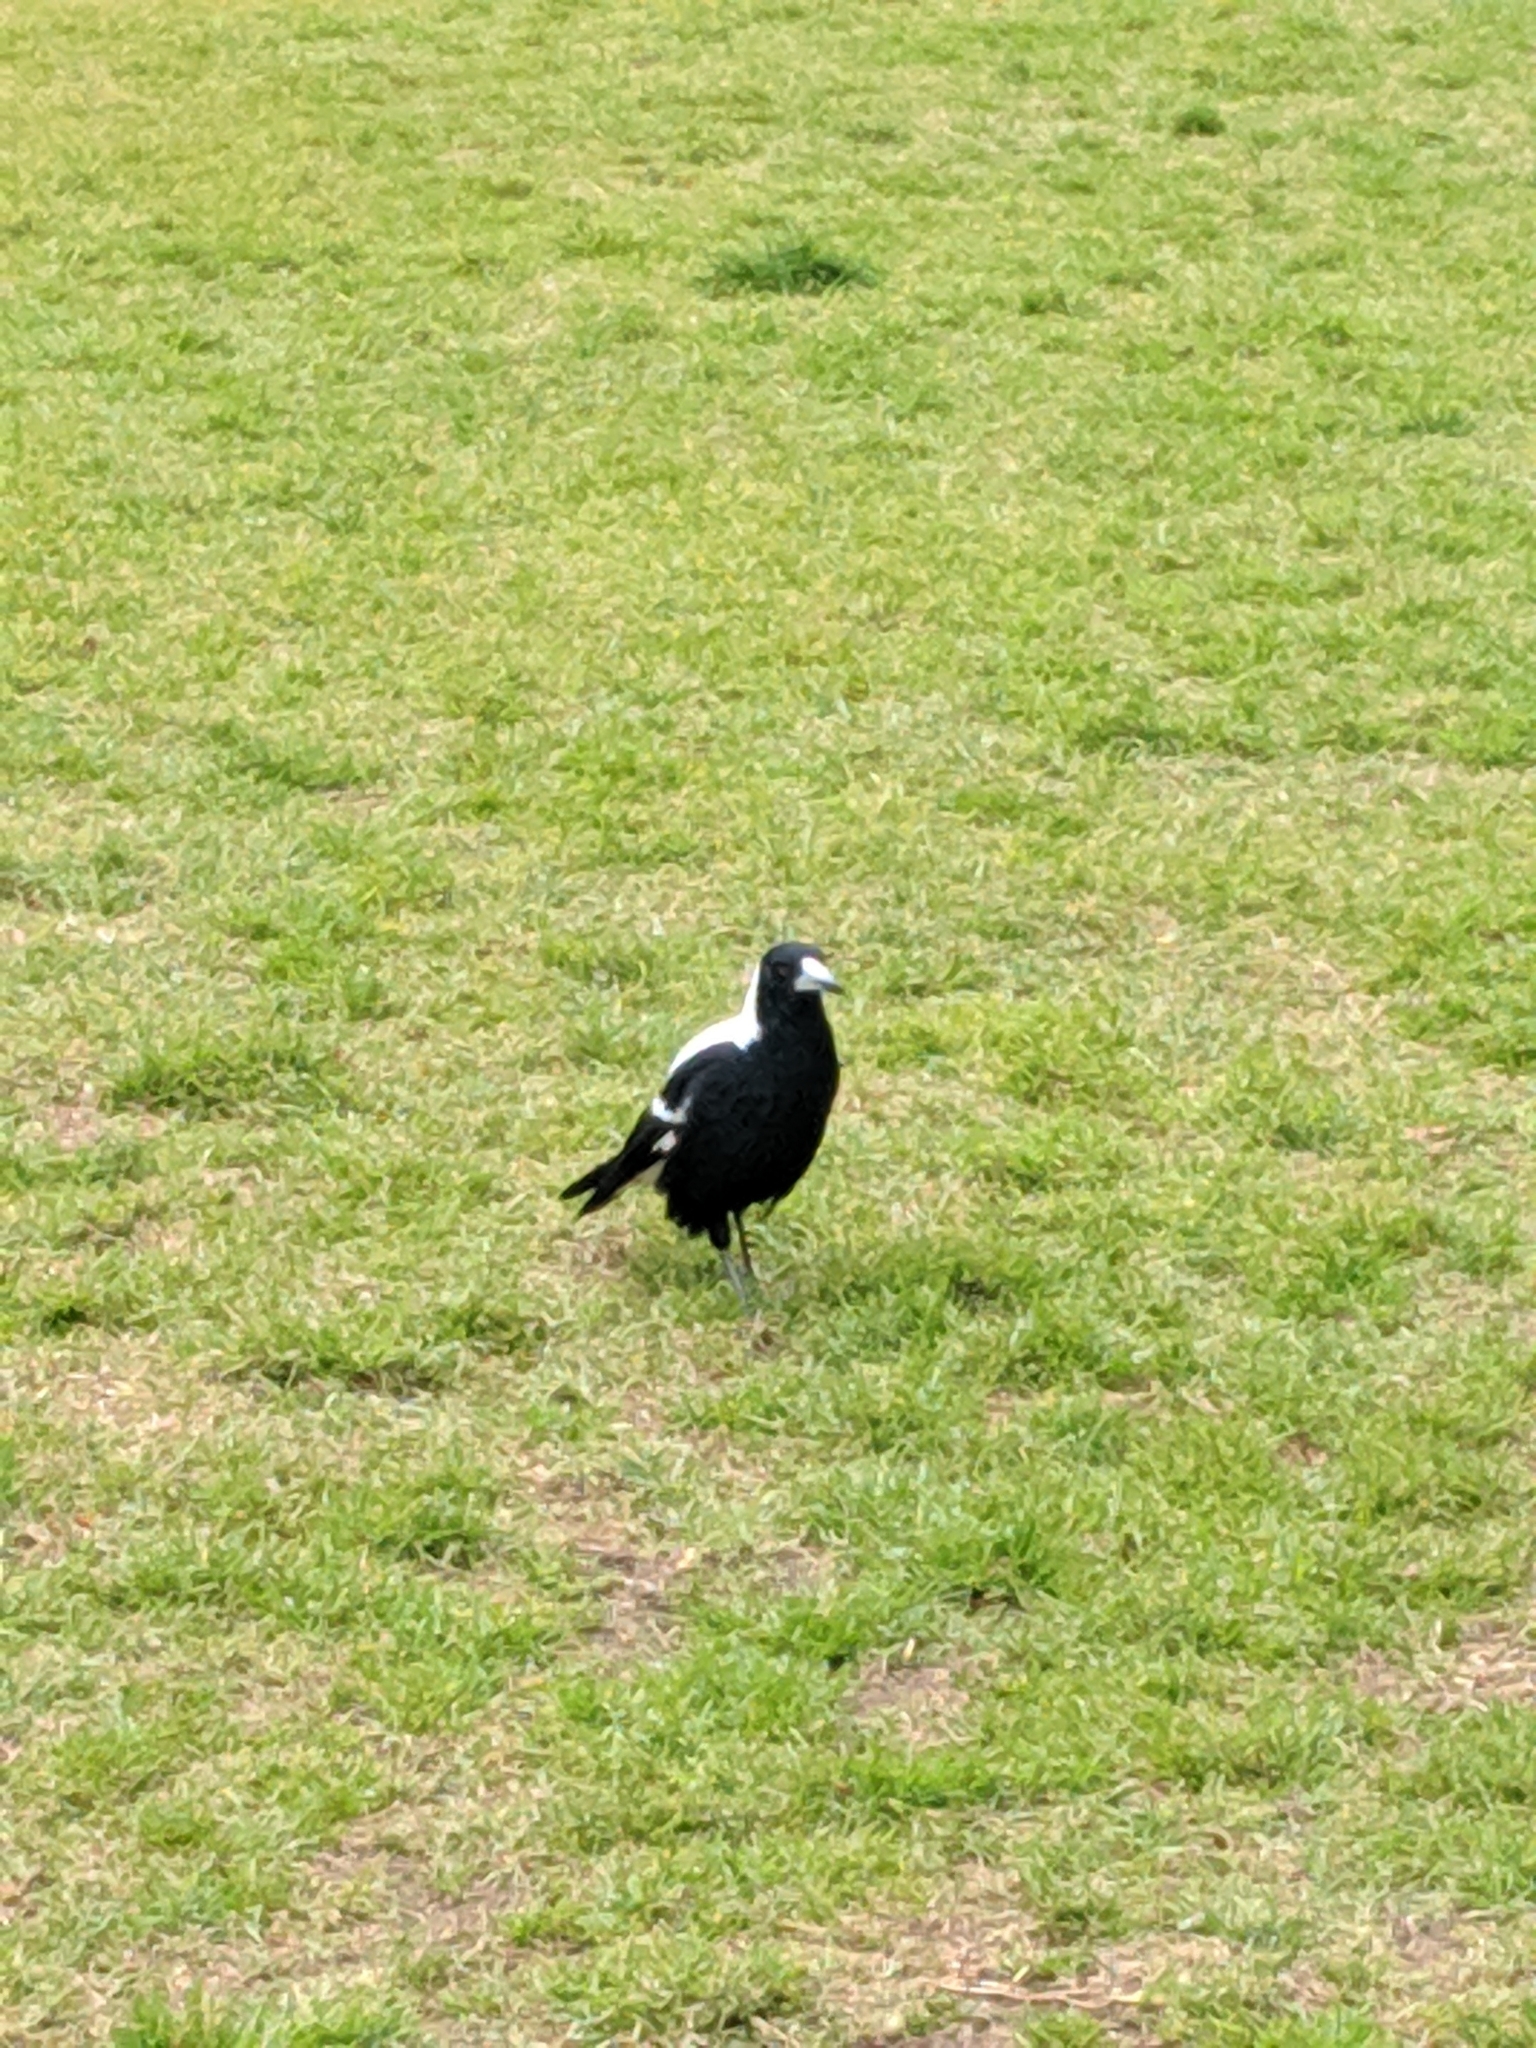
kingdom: Animalia
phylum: Chordata
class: Aves
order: Passeriformes
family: Cracticidae
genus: Gymnorhina
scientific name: Gymnorhina tibicen
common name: Australian magpie
